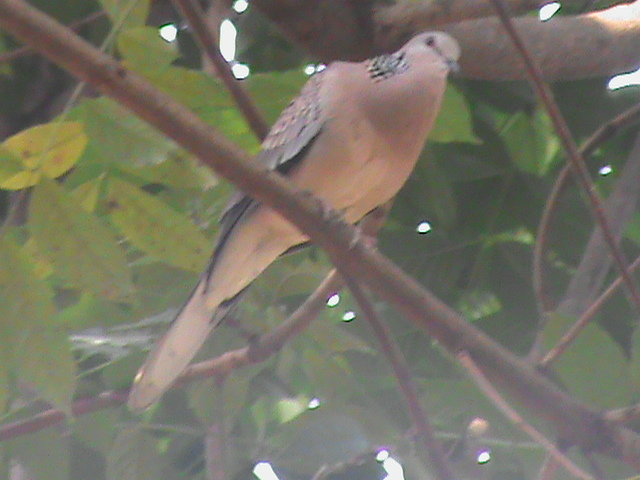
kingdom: Animalia
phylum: Chordata
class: Aves
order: Columbiformes
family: Columbidae
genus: Spilopelia
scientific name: Spilopelia chinensis
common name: Spotted dove
